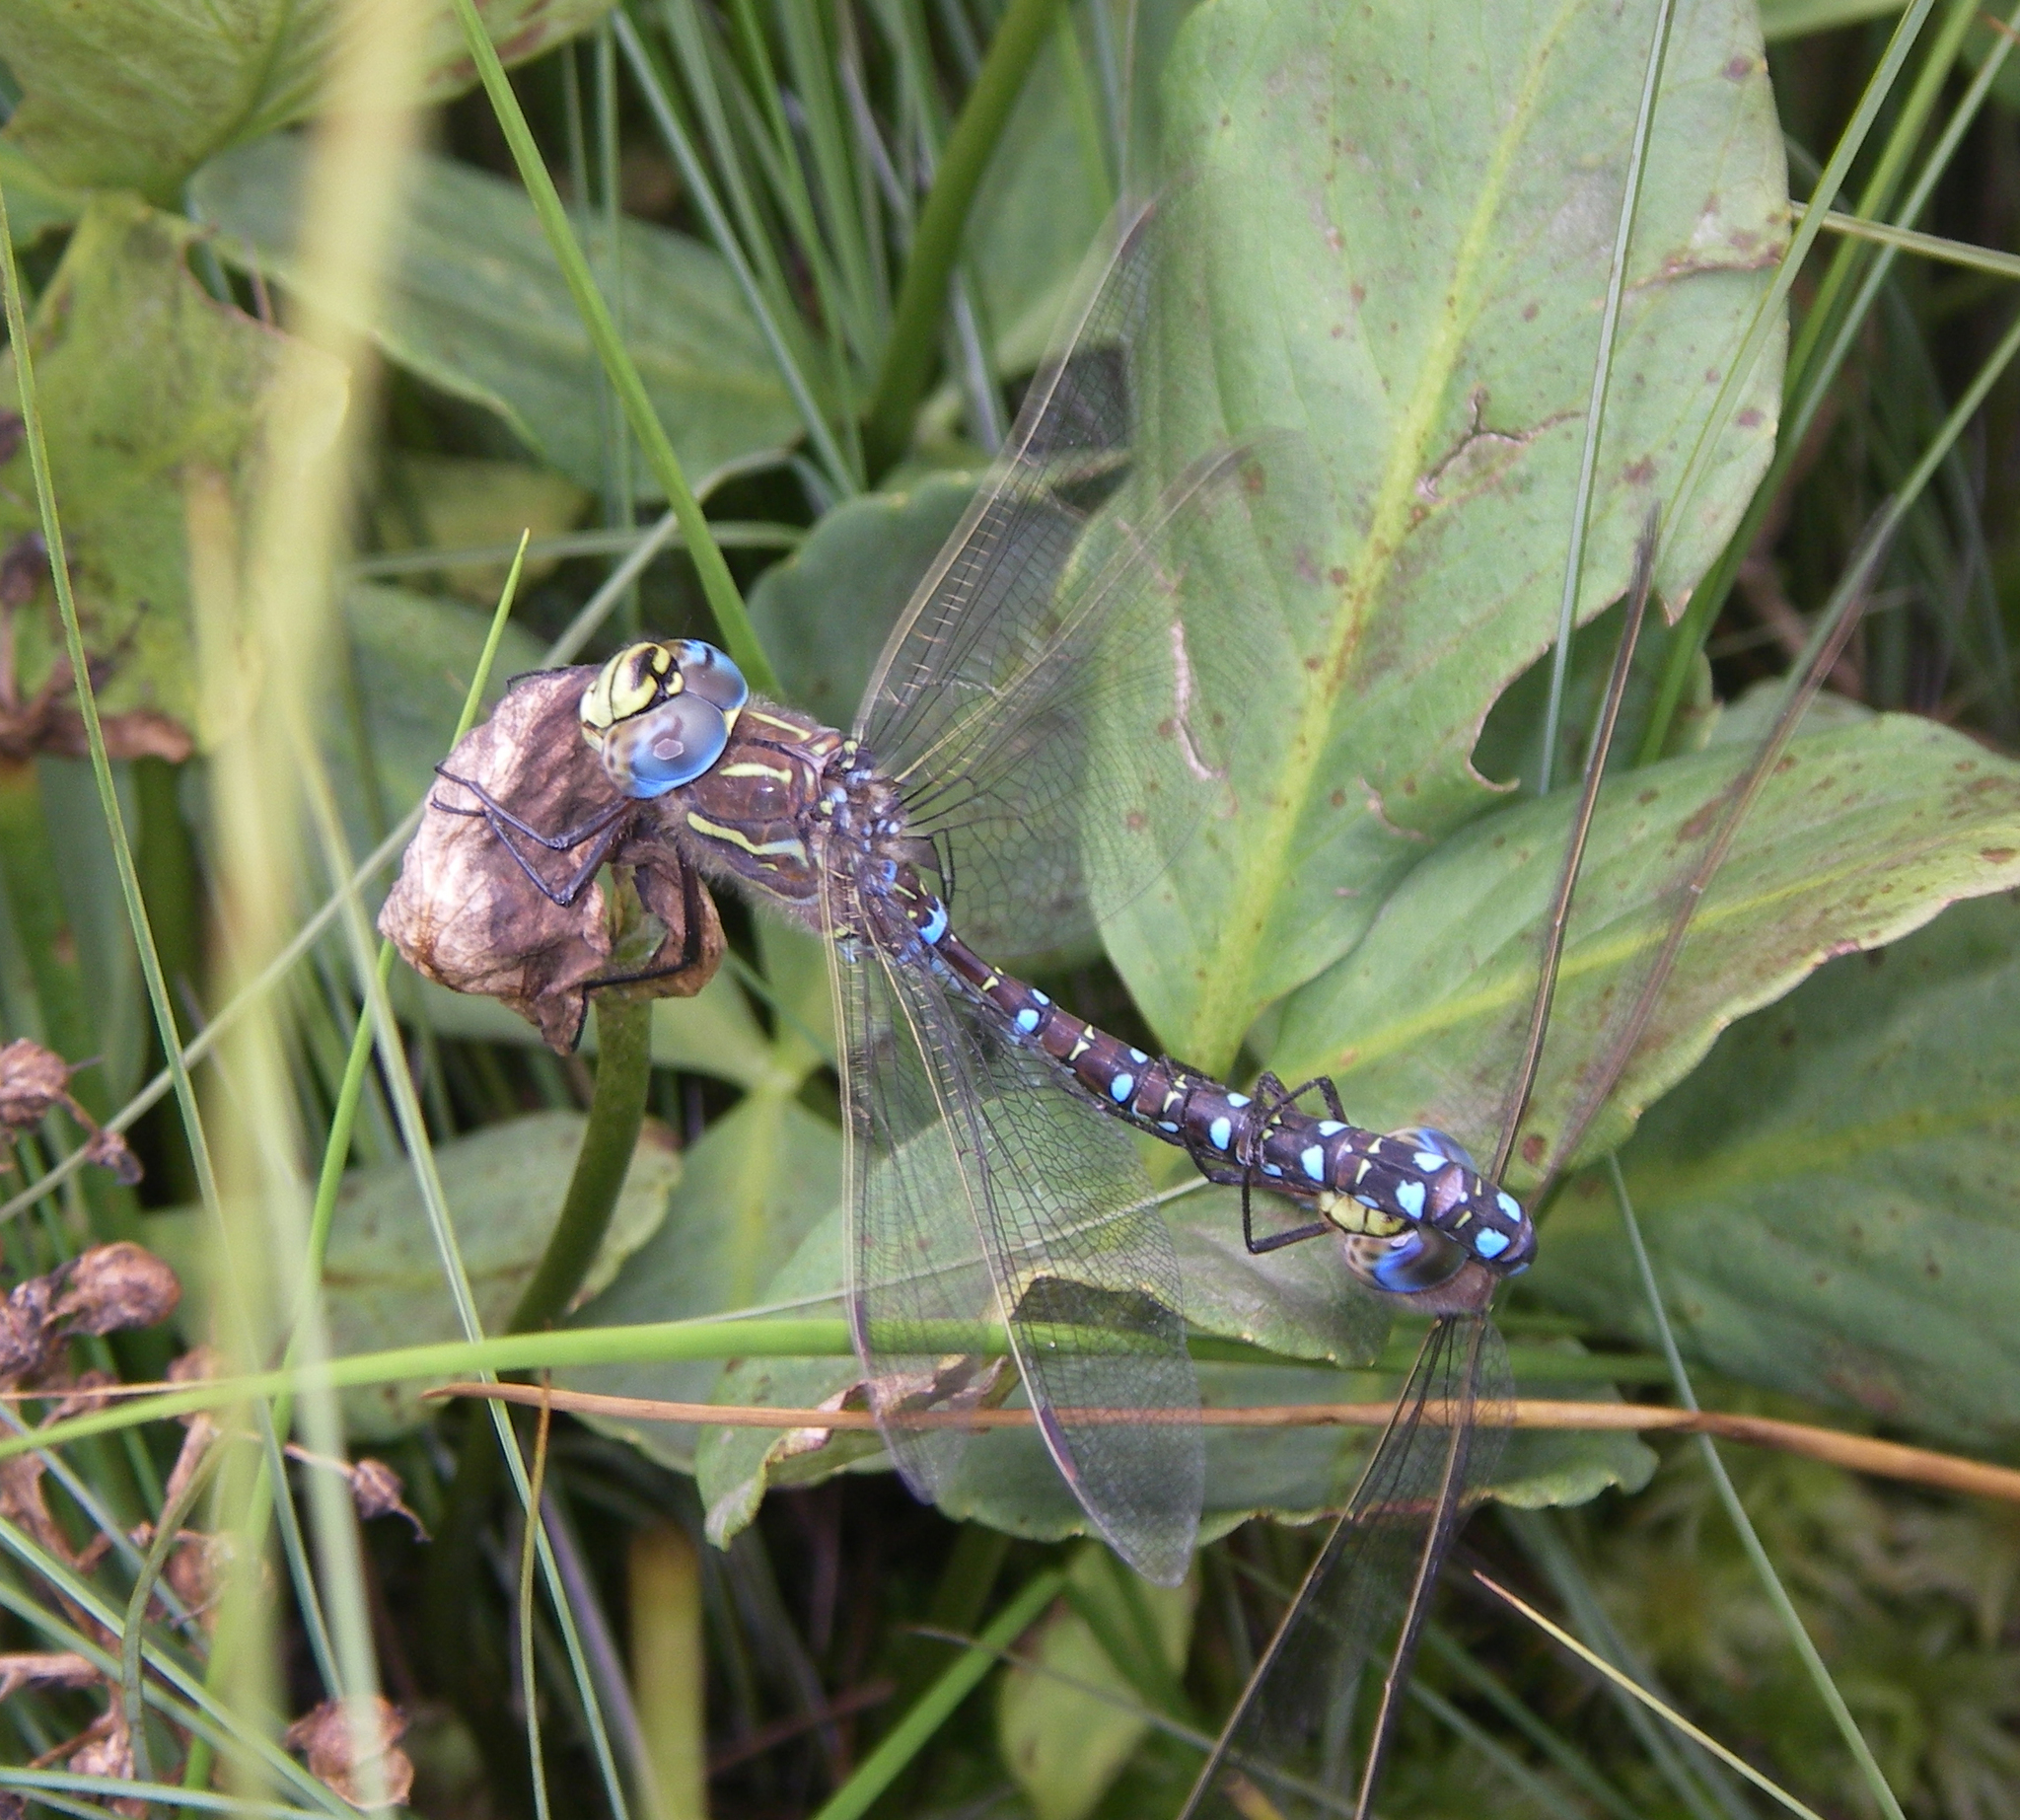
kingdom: Animalia
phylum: Arthropoda
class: Insecta
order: Odonata
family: Aeshnidae
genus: Aeshna
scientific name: Aeshna juncea
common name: Moorland hawker
